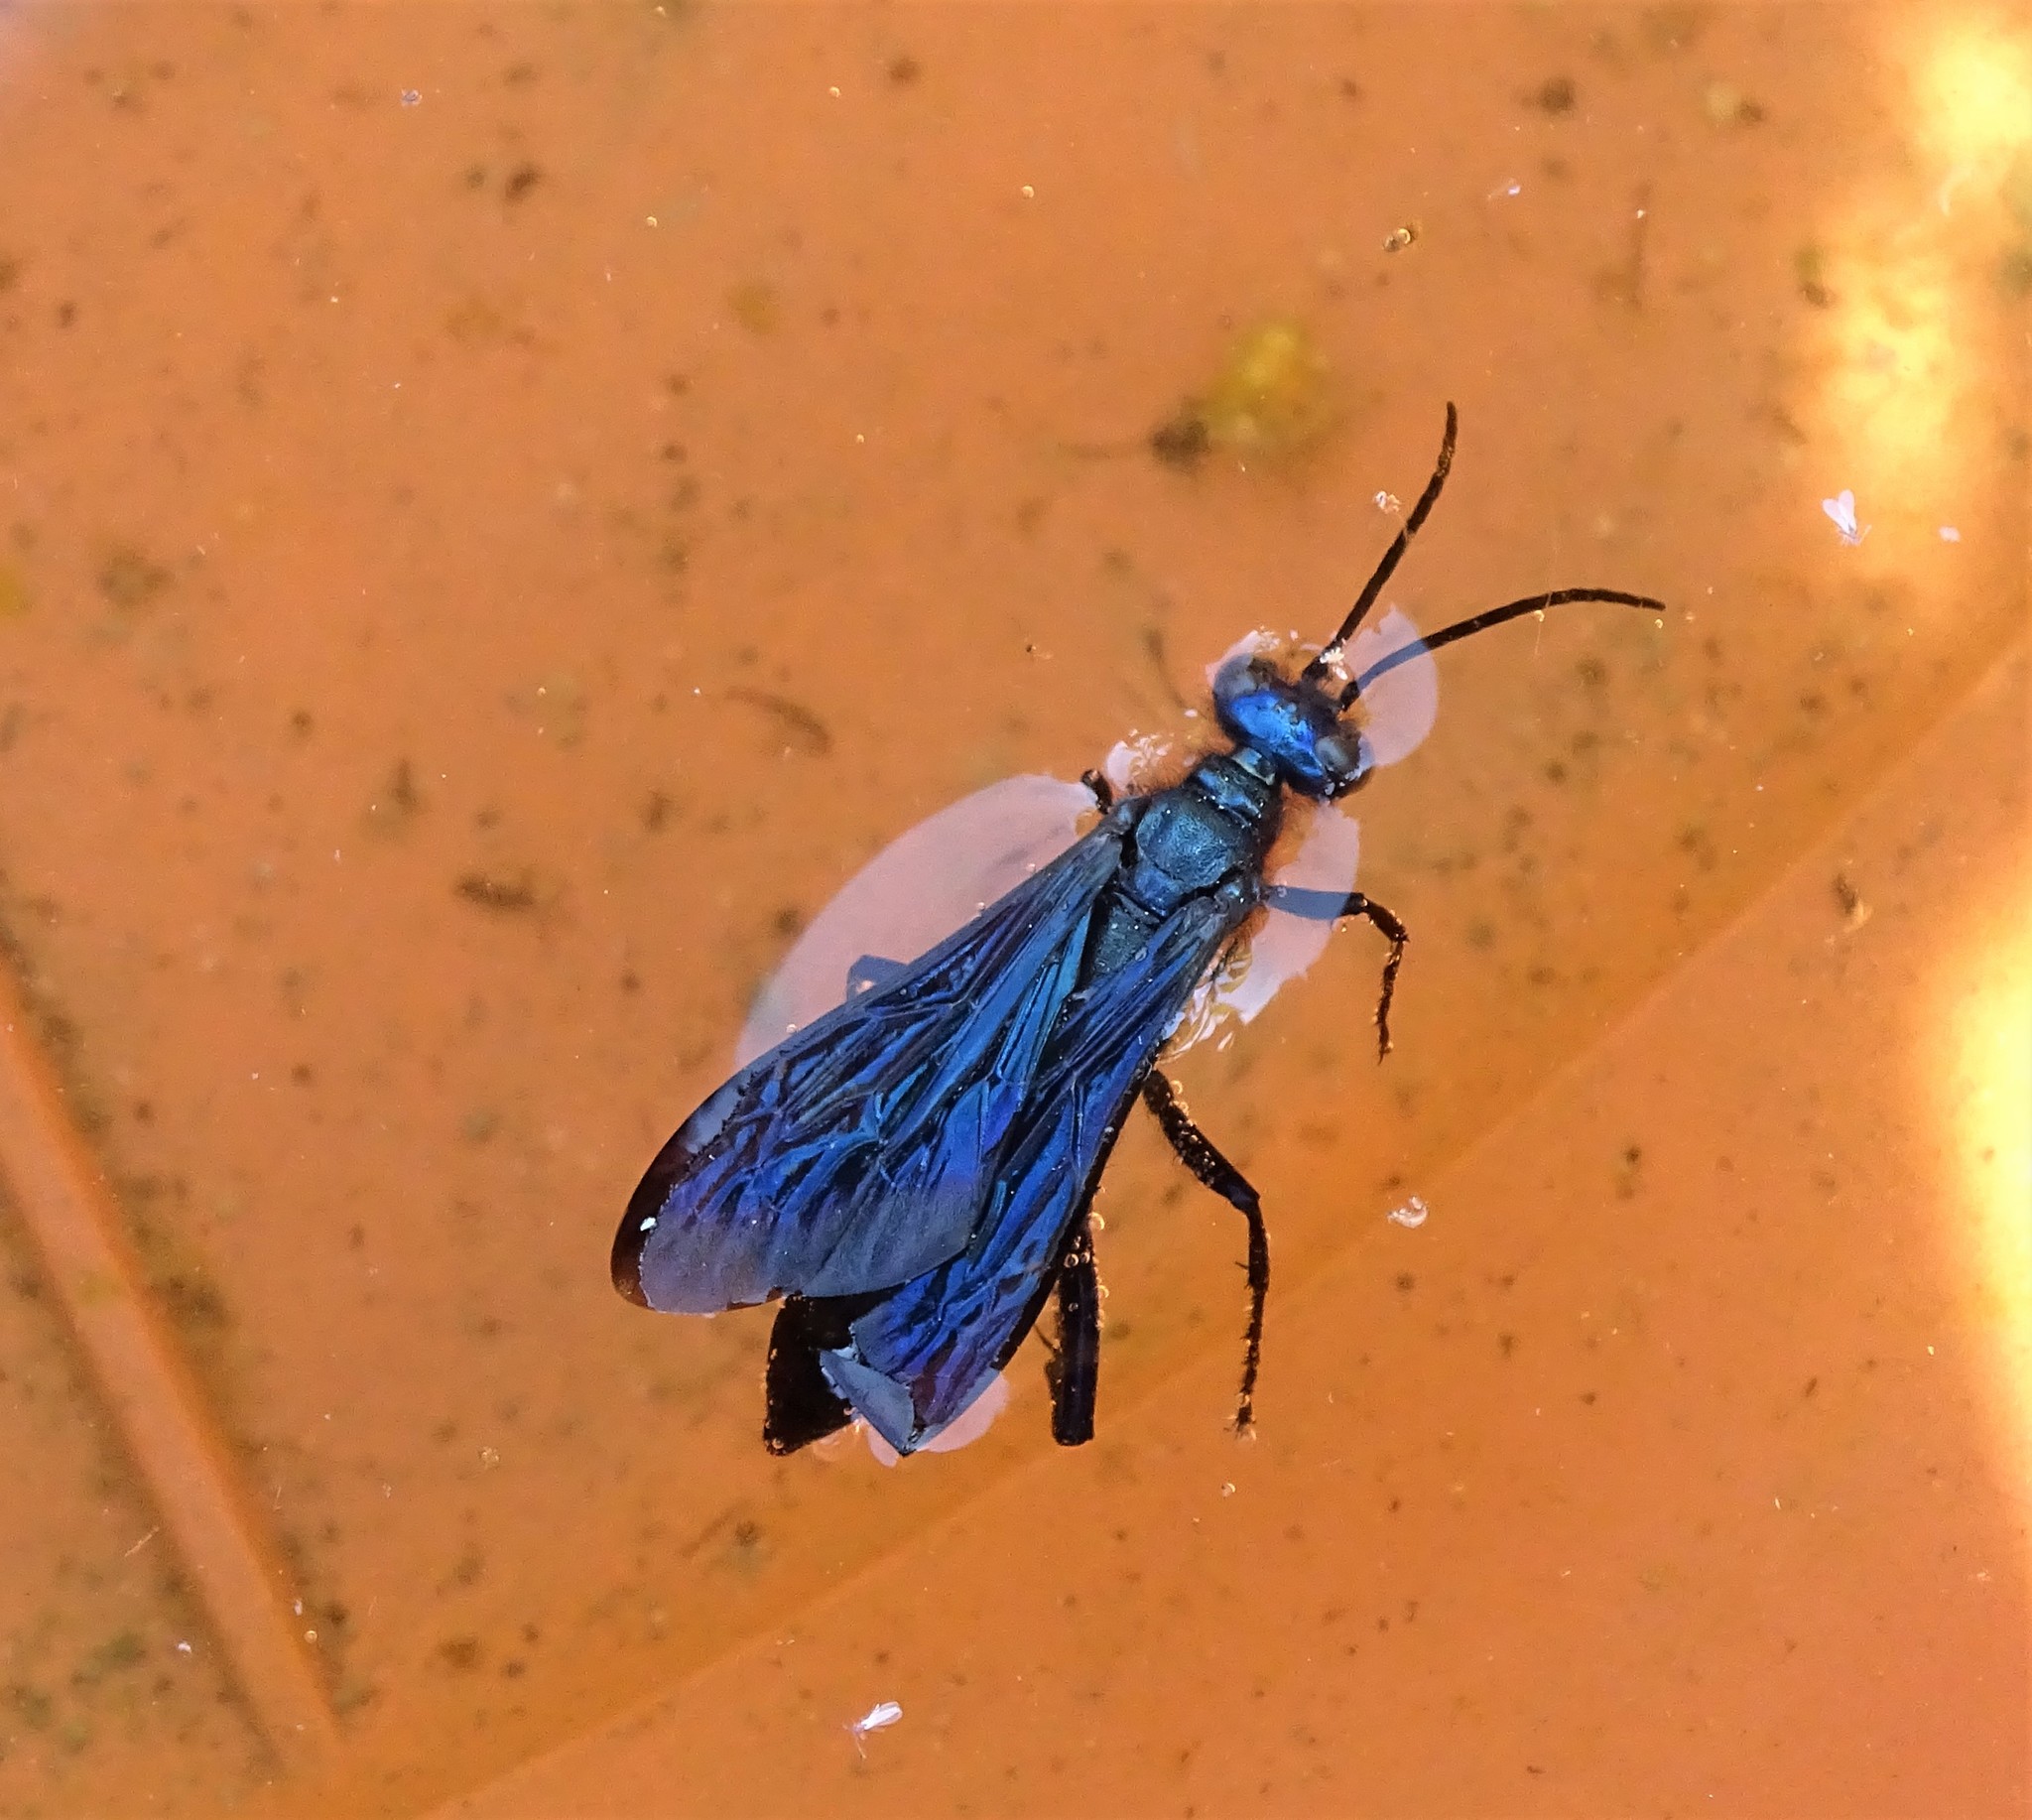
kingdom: Animalia
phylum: Arthropoda
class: Insecta
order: Hymenoptera
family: Sphecidae
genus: Chalybion
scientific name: Chalybion californicum
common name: Mud dauber
